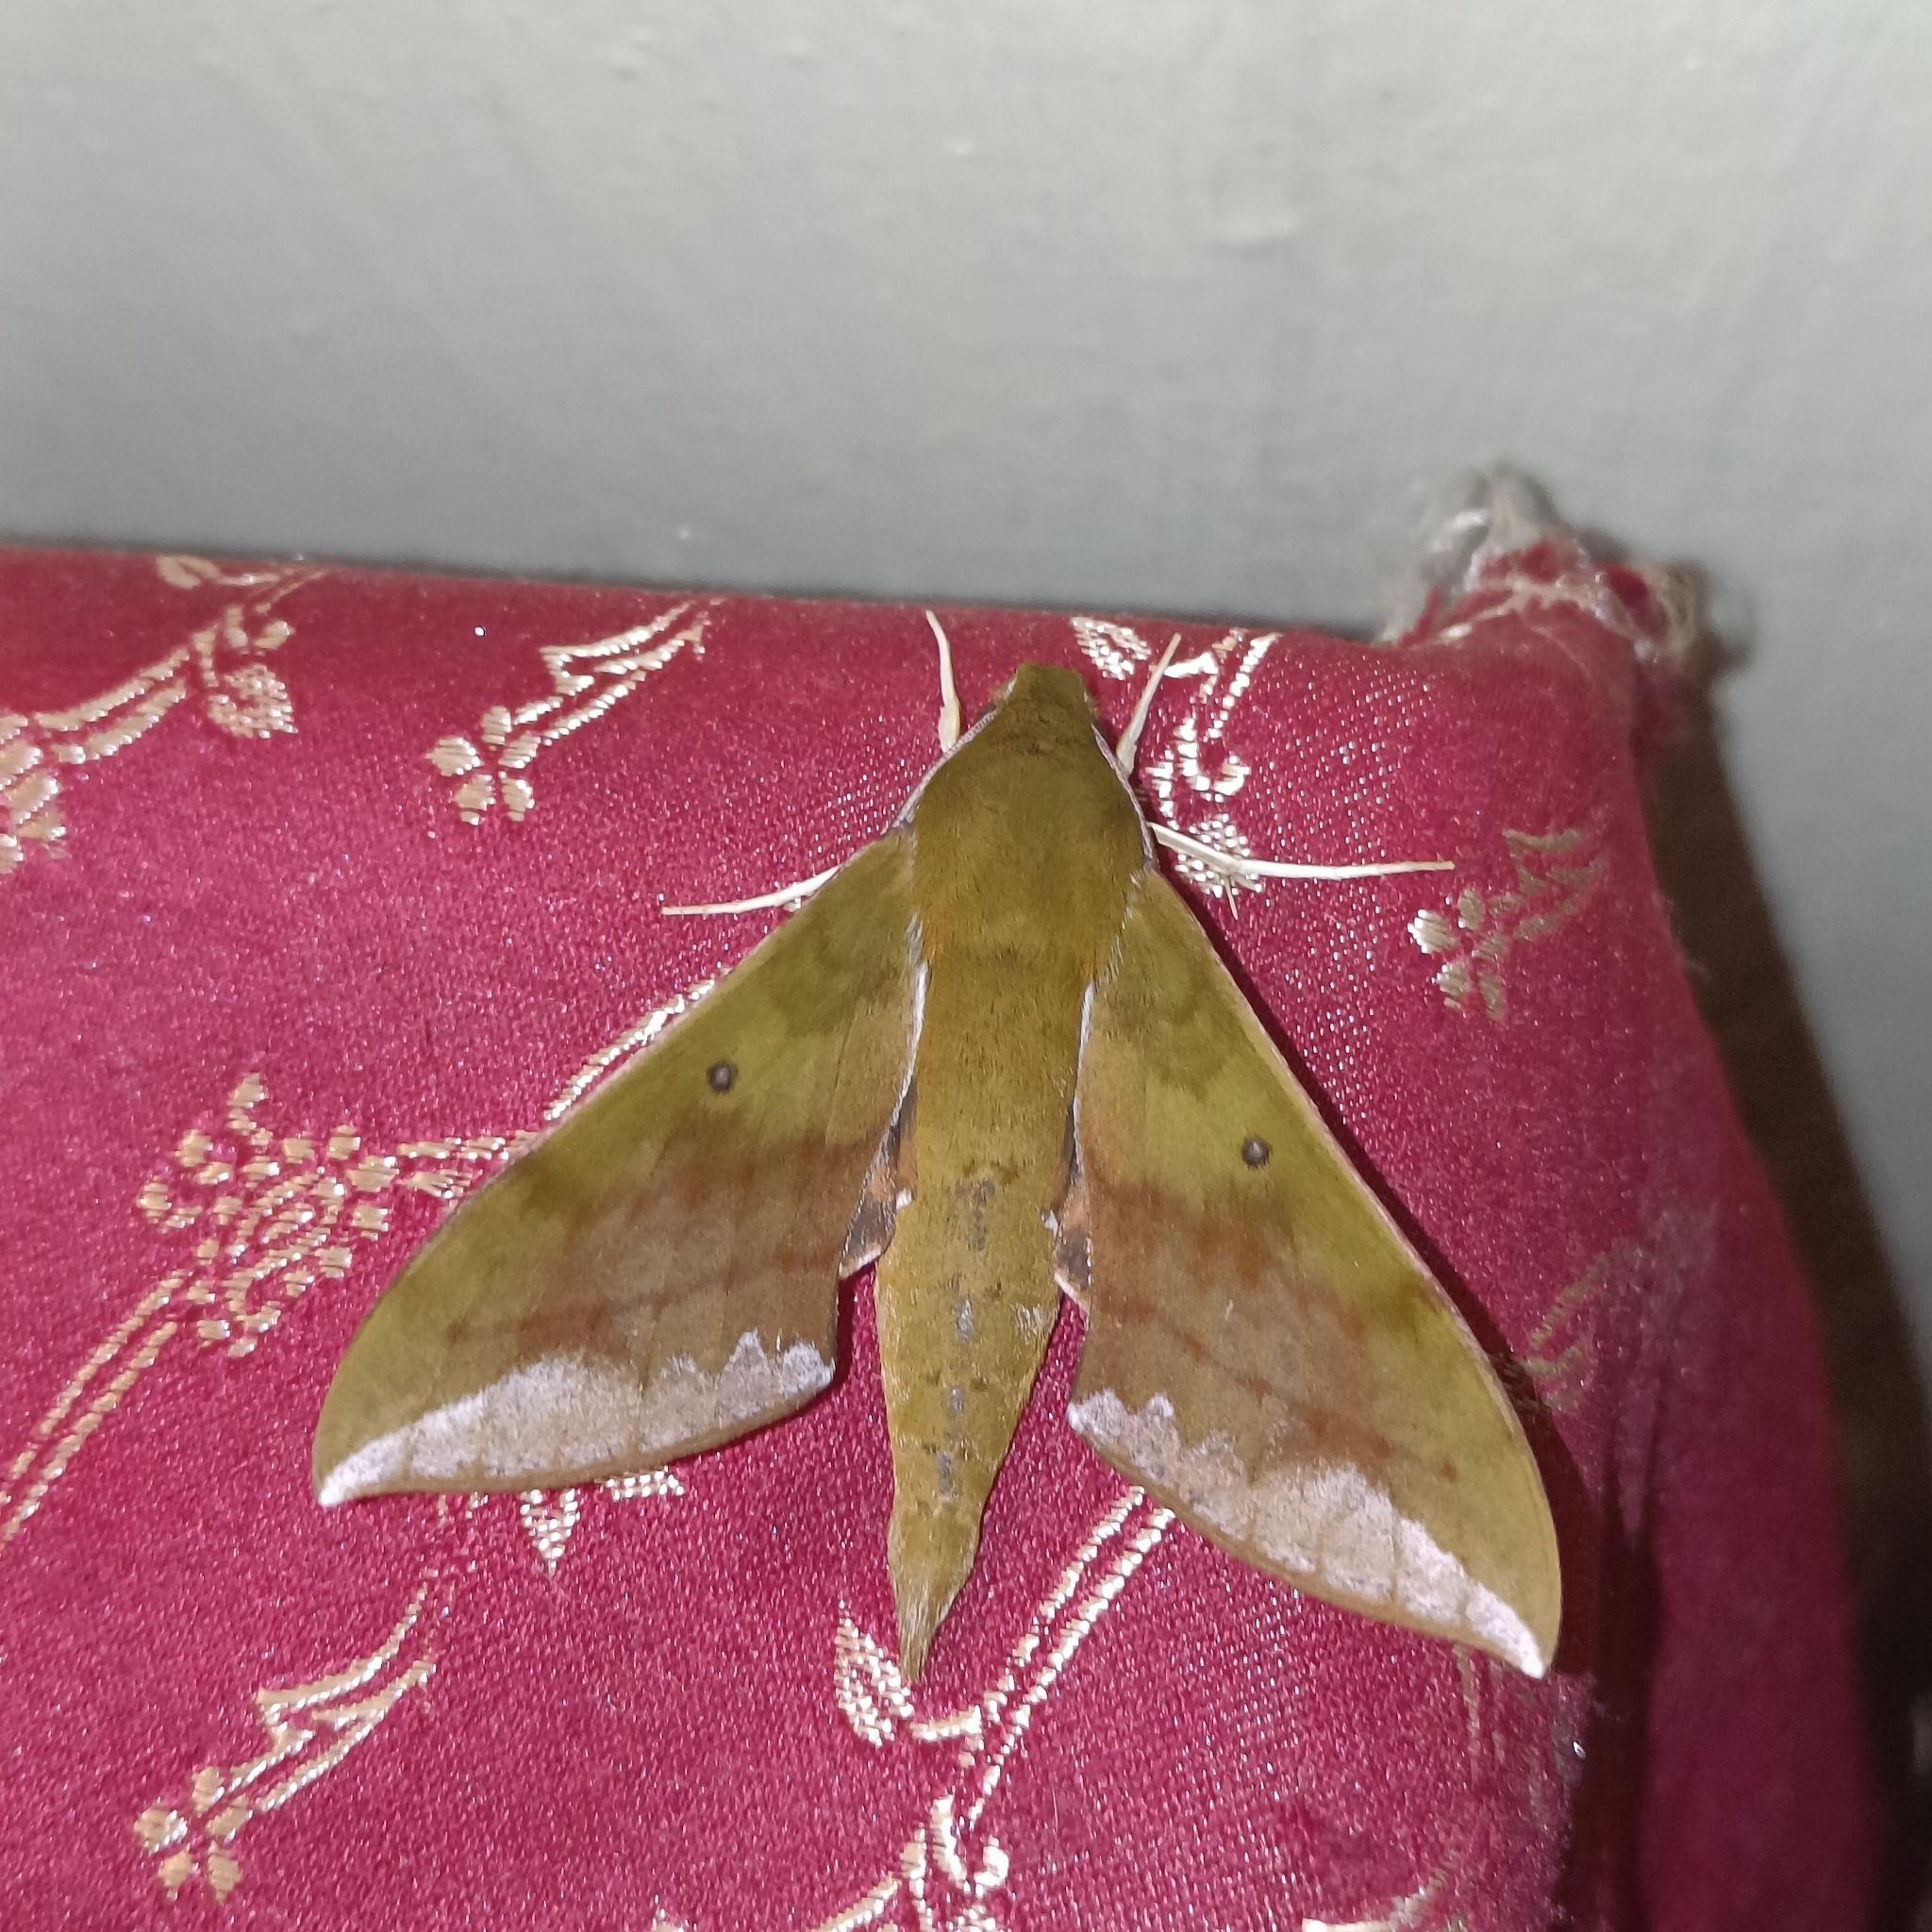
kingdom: Animalia
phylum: Arthropoda
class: Insecta
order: Lepidoptera
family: Sphingidae
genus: Rhagastis
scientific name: Rhagastis olivacea
